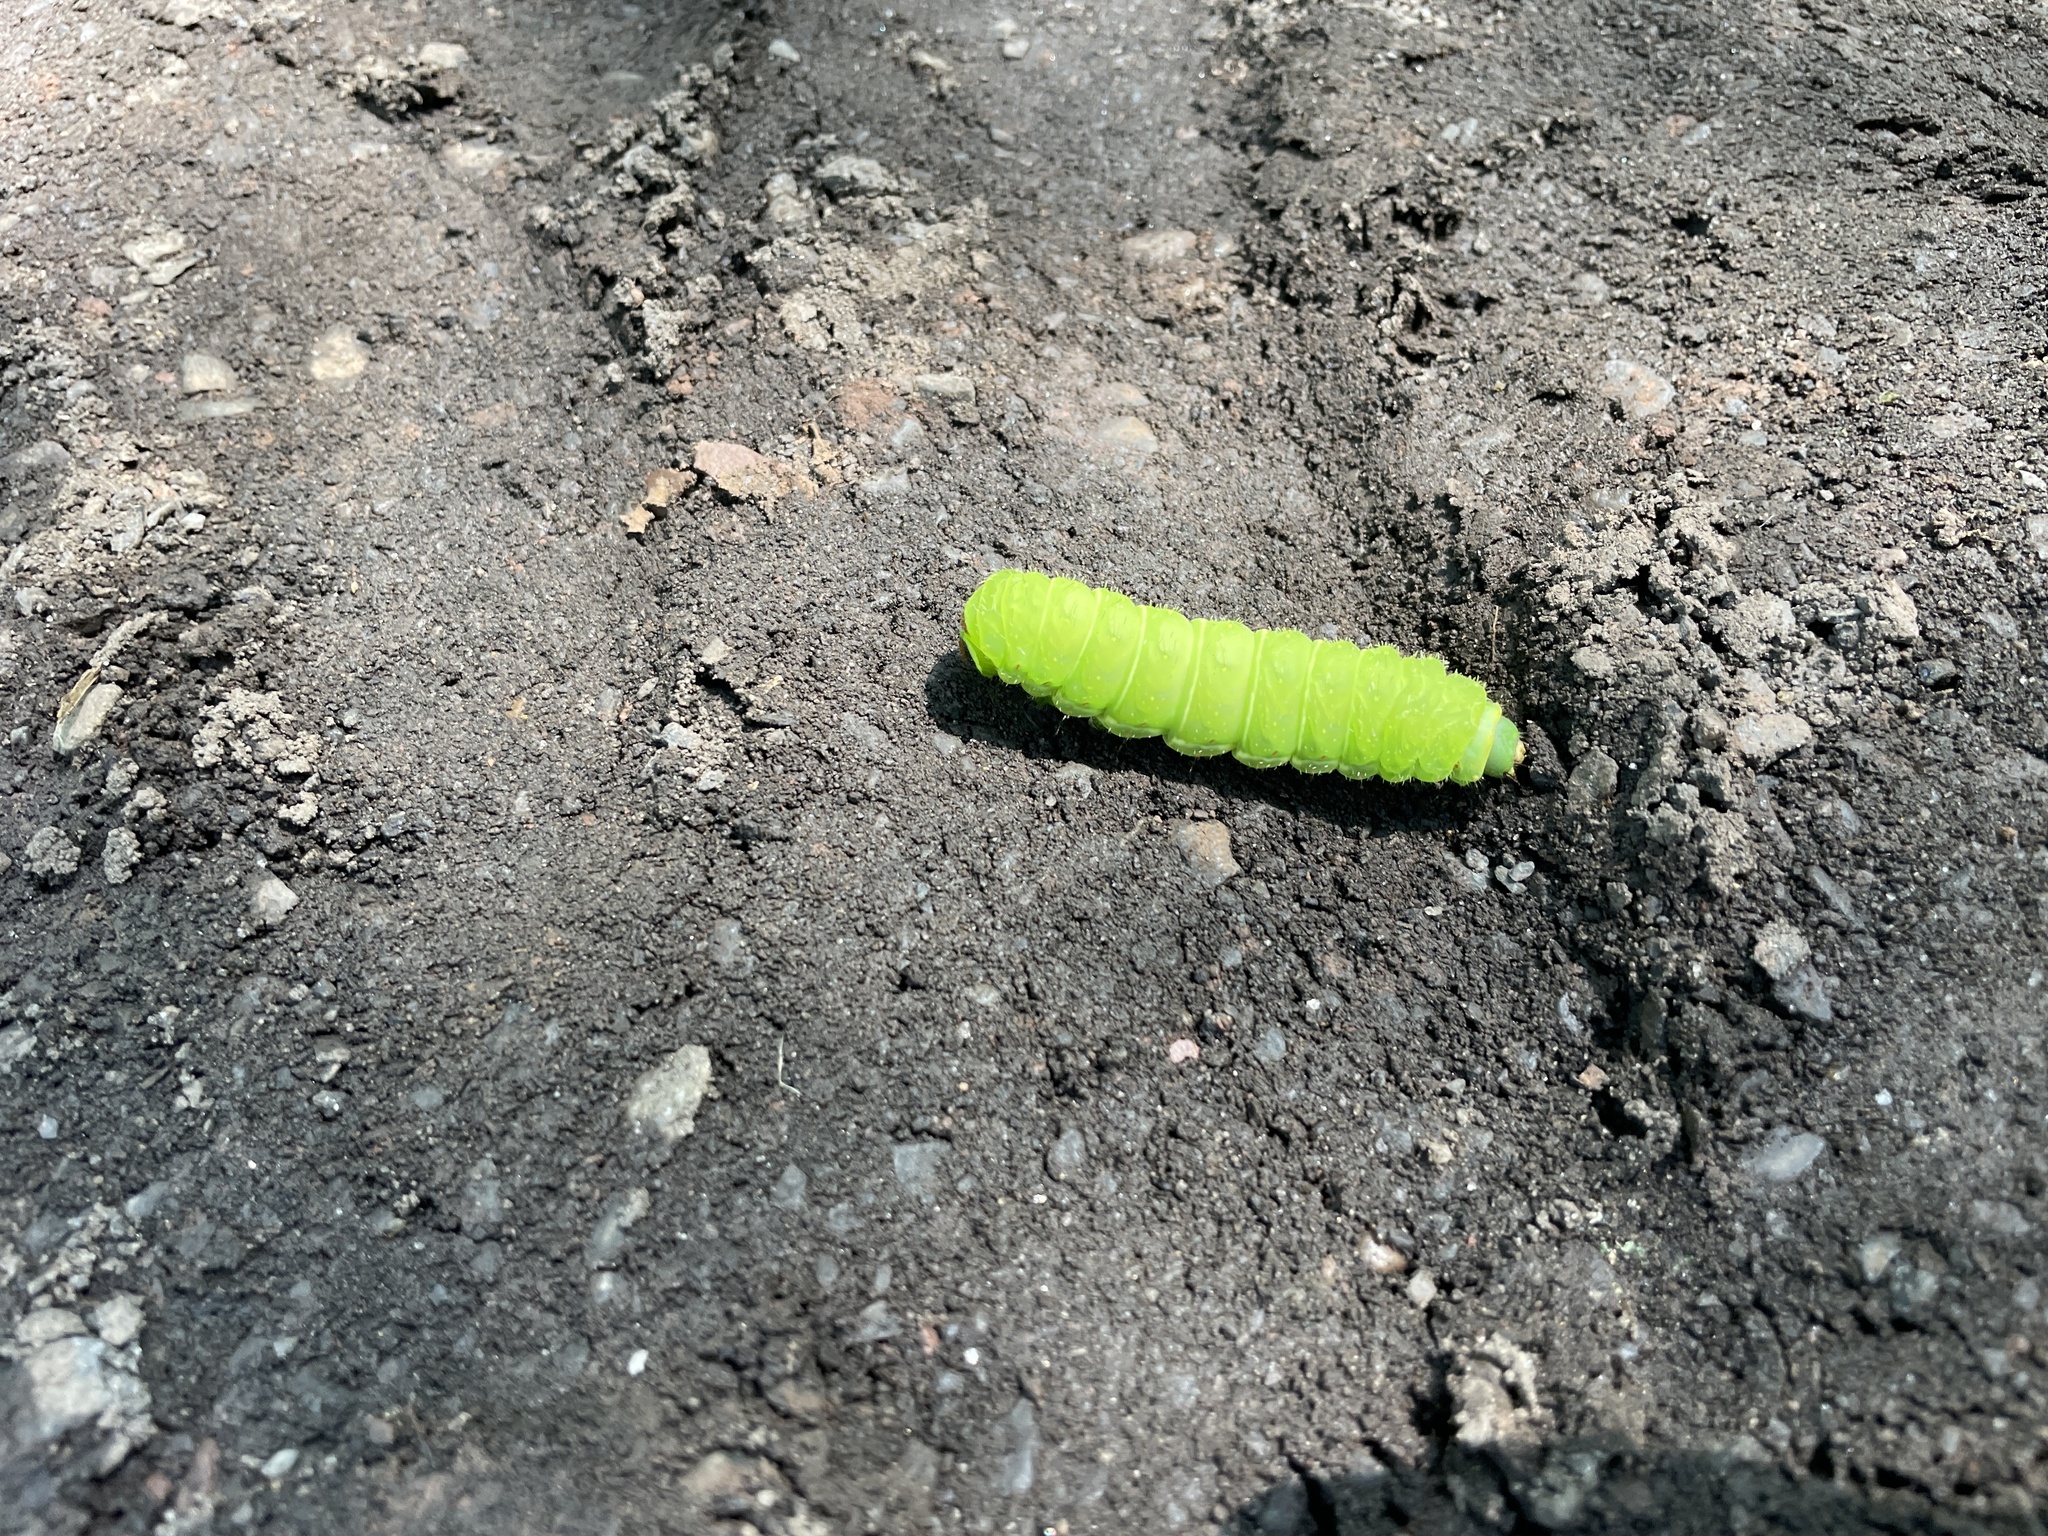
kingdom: Animalia
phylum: Arthropoda
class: Insecta
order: Lepidoptera
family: Saturniidae
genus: Actias
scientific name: Actias luna
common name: Luna moth
